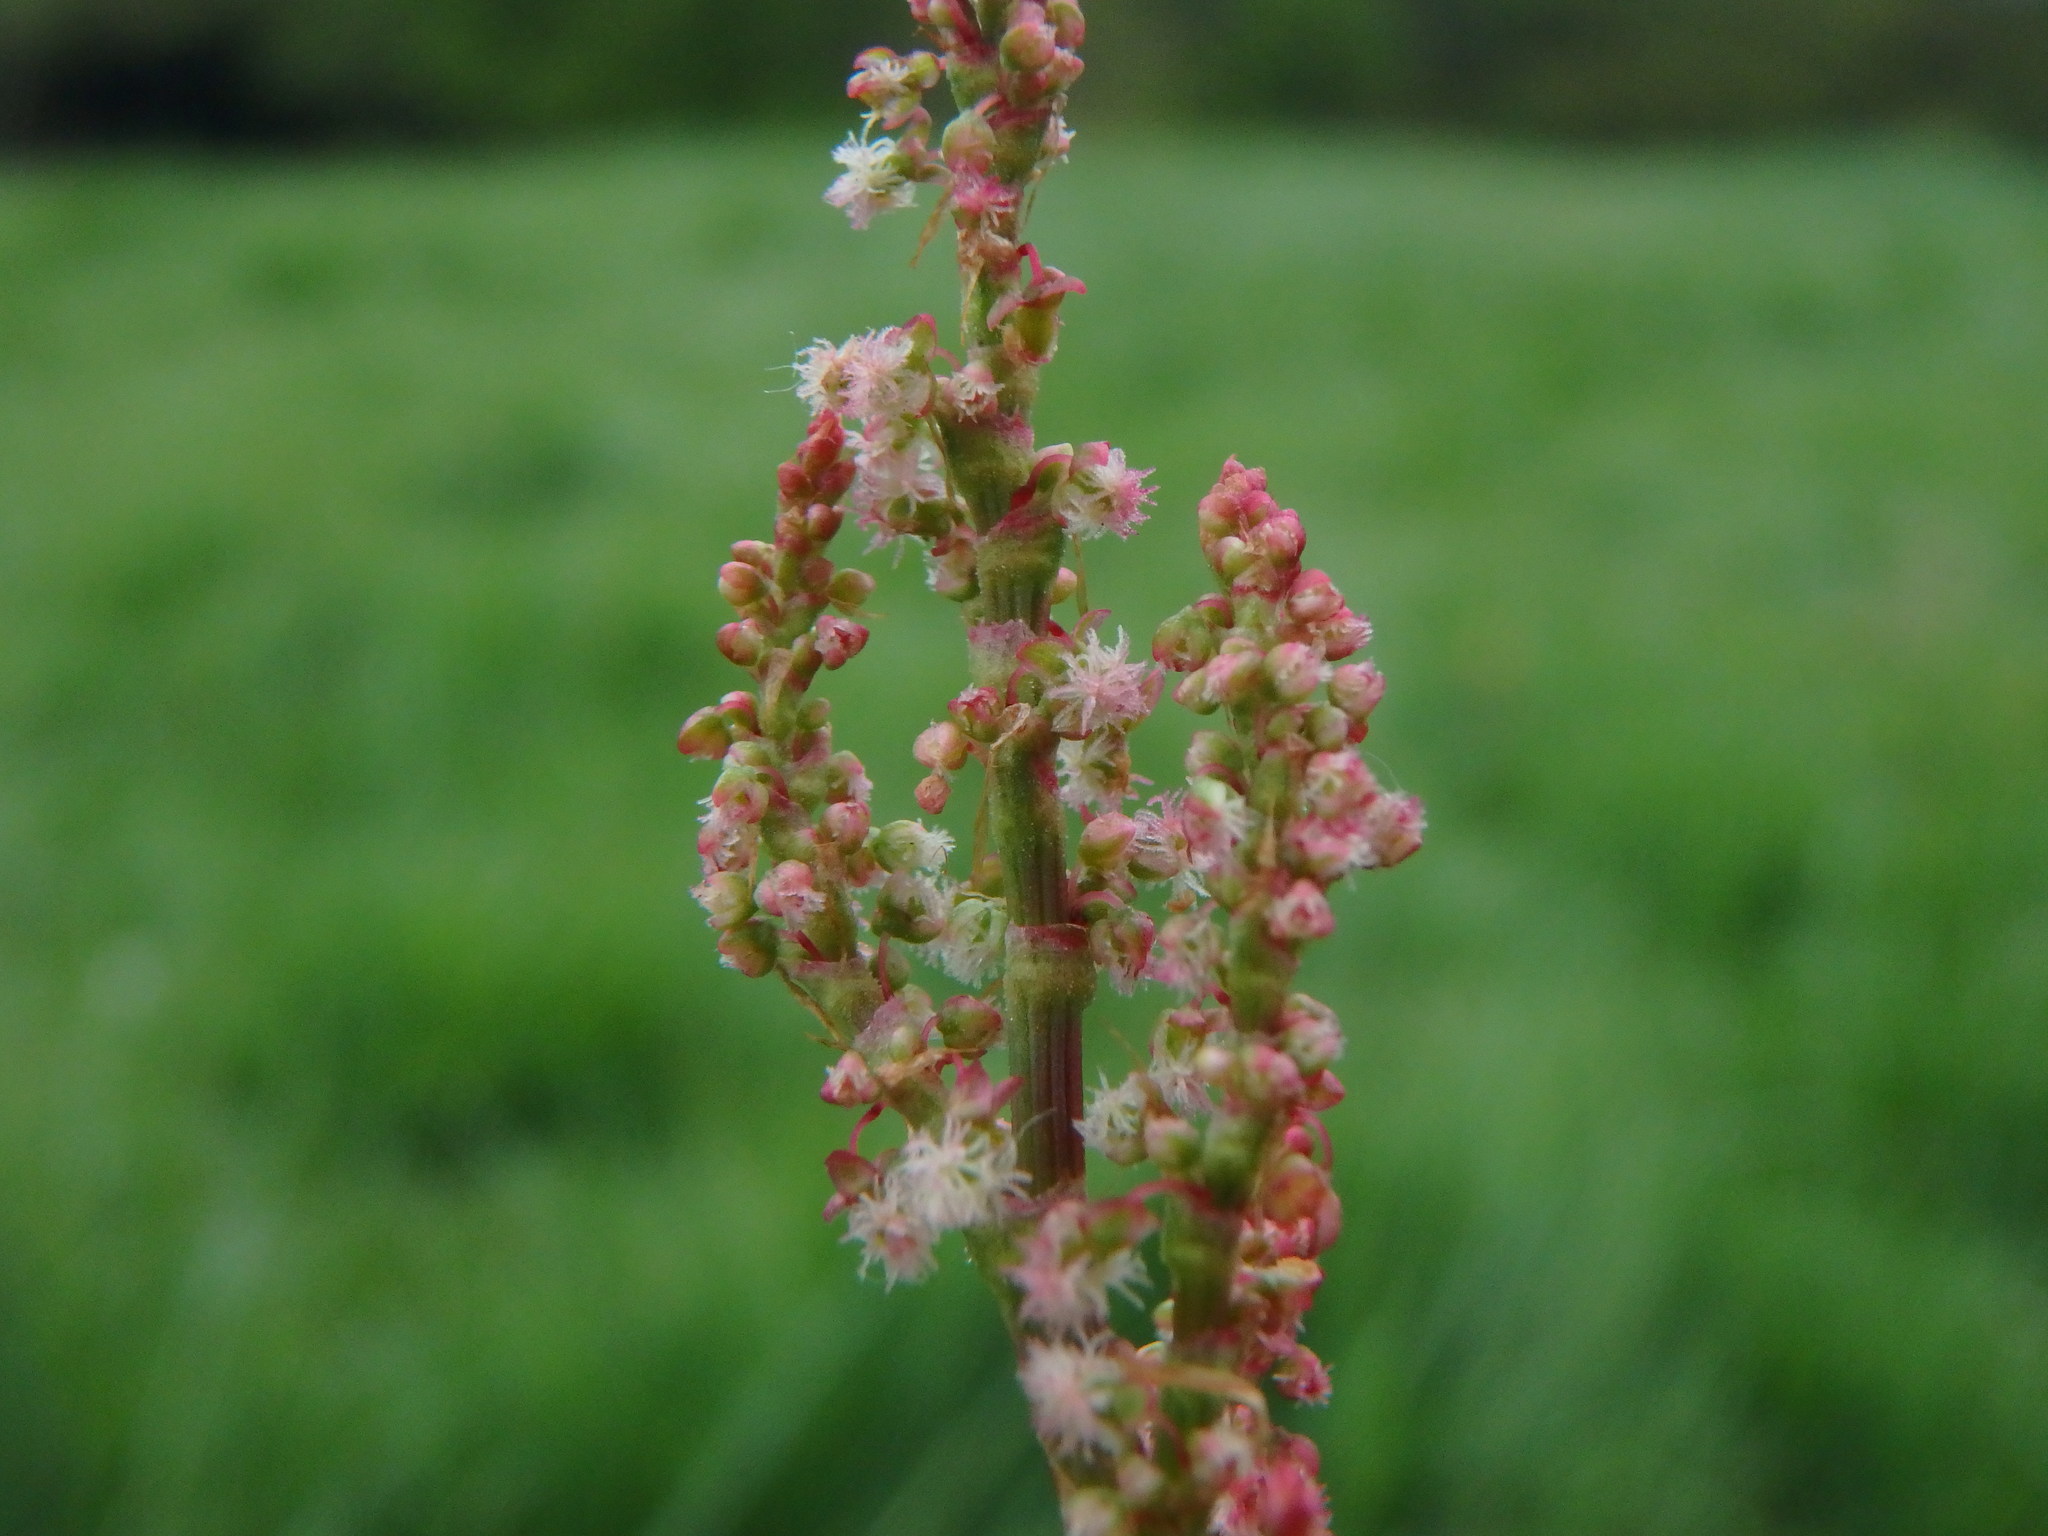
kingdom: Plantae
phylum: Tracheophyta
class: Magnoliopsida
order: Caryophyllales
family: Polygonaceae
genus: Rumex
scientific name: Rumex acetosa
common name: Garden sorrel
